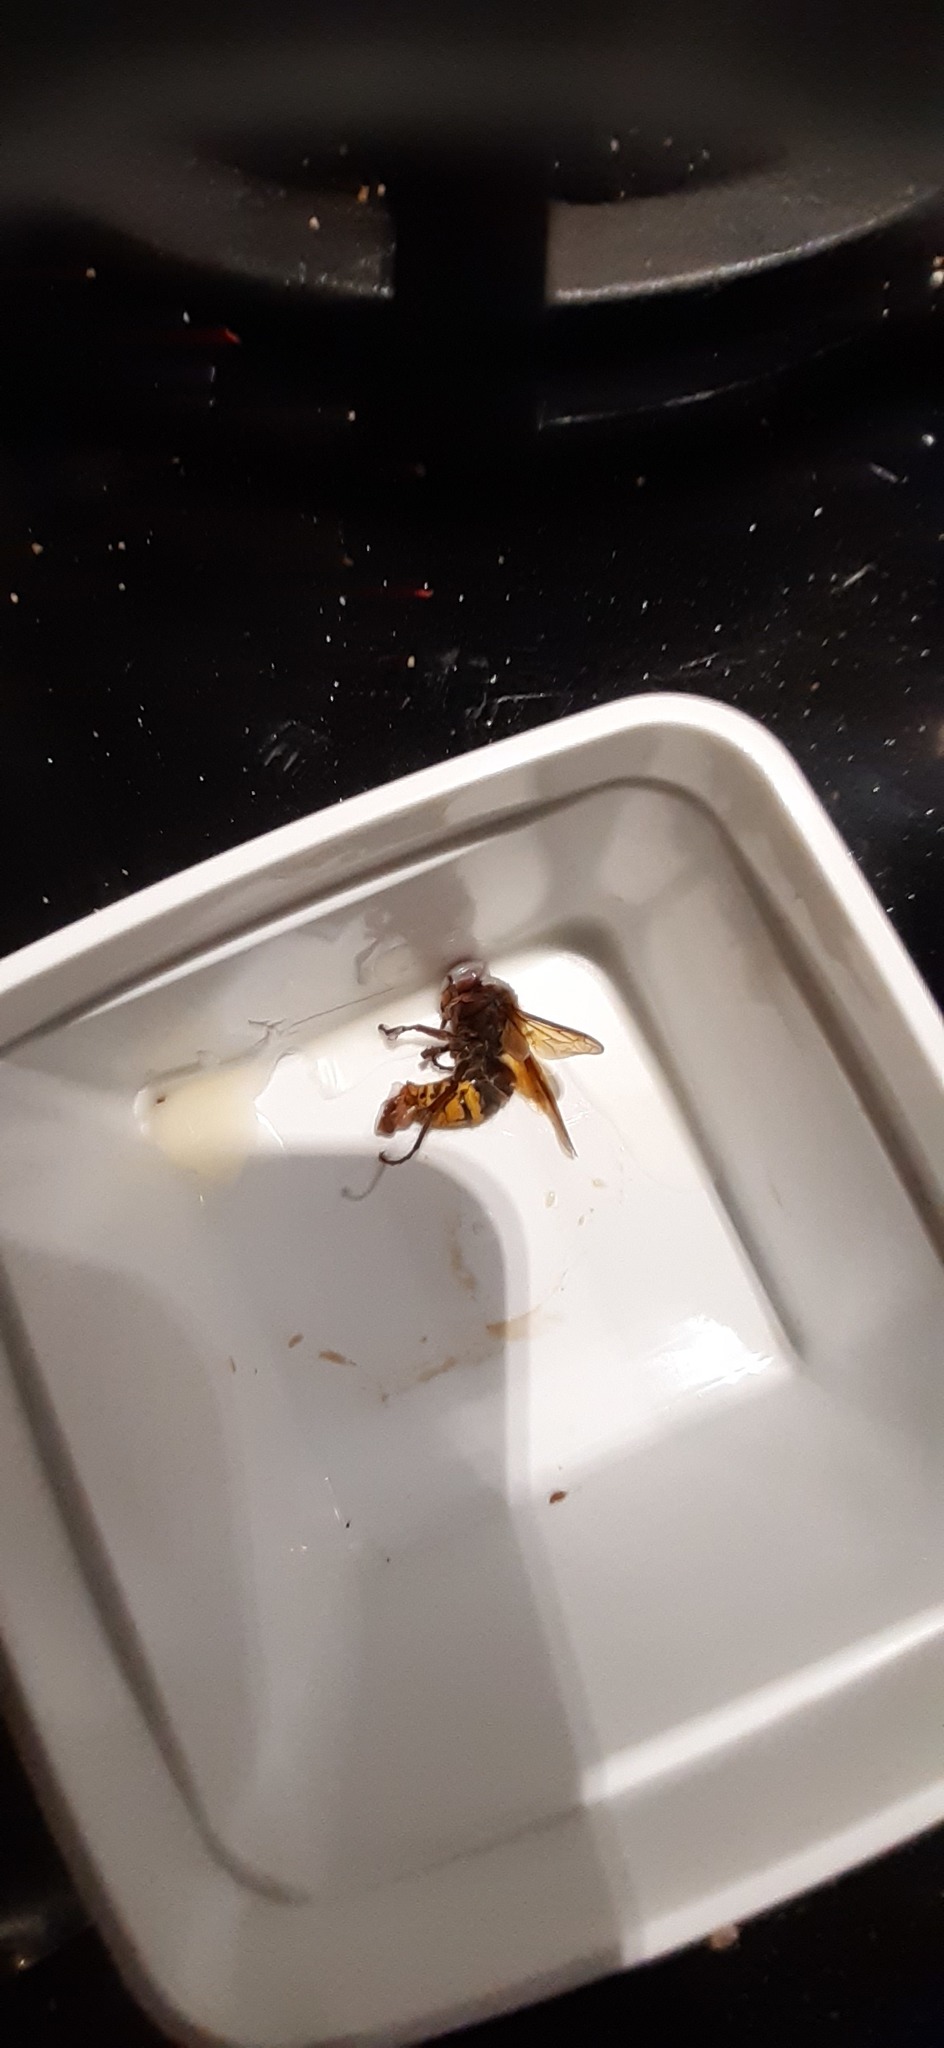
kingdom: Animalia
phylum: Arthropoda
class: Insecta
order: Hymenoptera
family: Vespidae
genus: Vespa
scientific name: Vespa crabro
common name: Hornet
